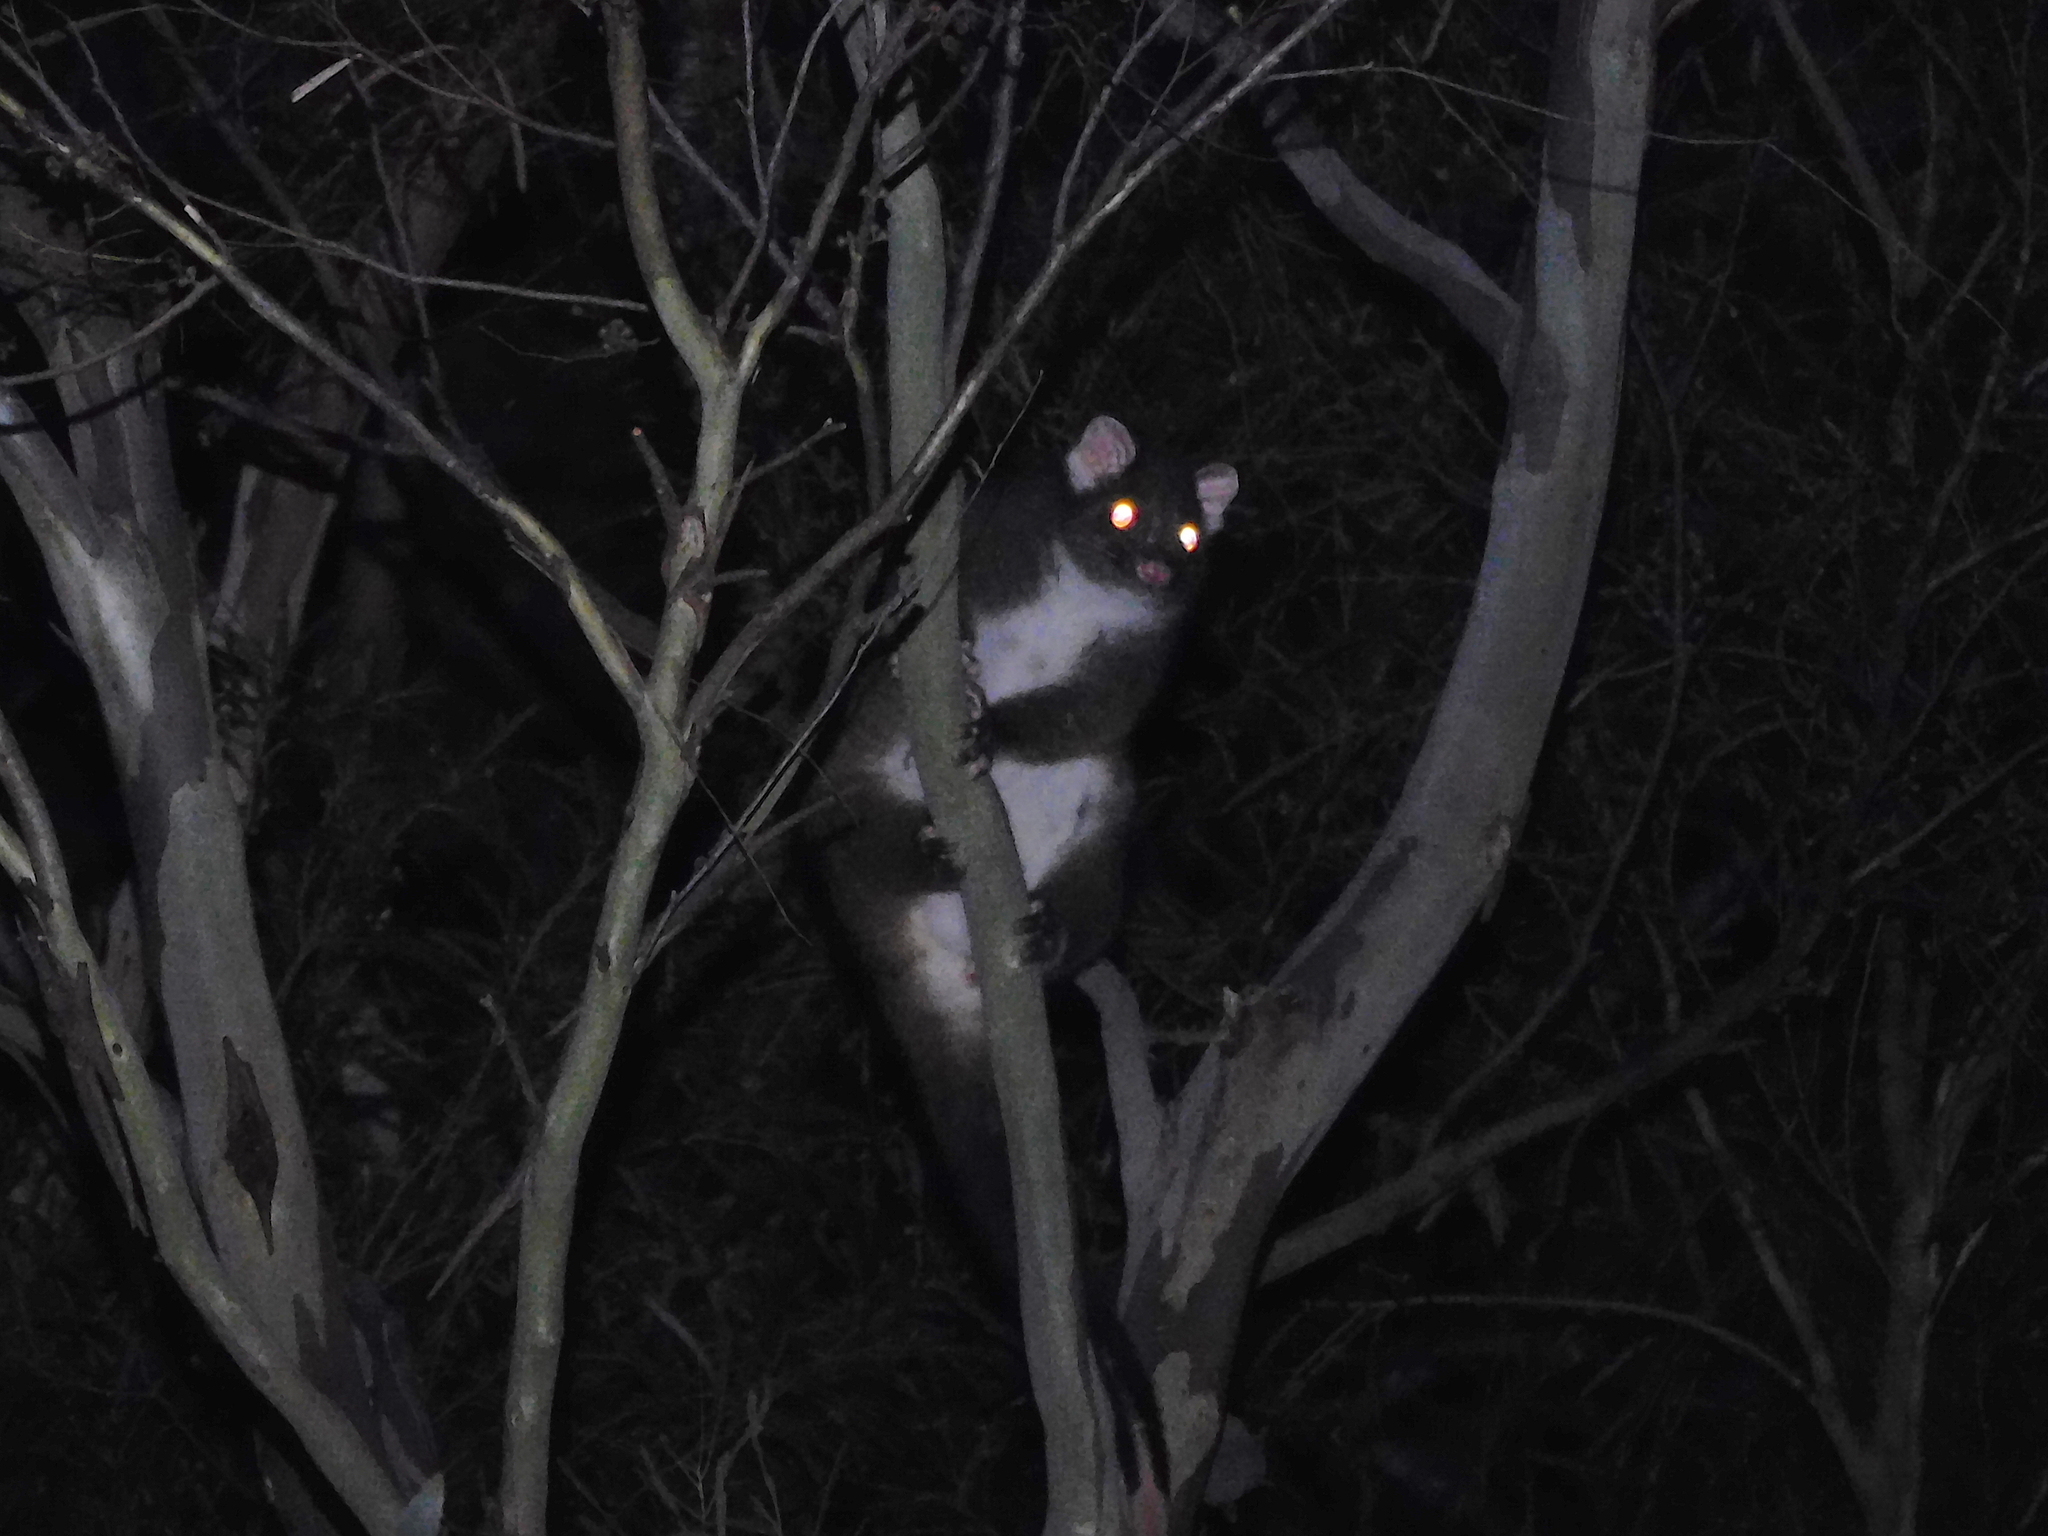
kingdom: Animalia
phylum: Chordata
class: Mammalia
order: Diprotodontia
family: Pseudocheiridae
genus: Pseudocheirus
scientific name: Pseudocheirus peregrinus
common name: Common ringtail possum
